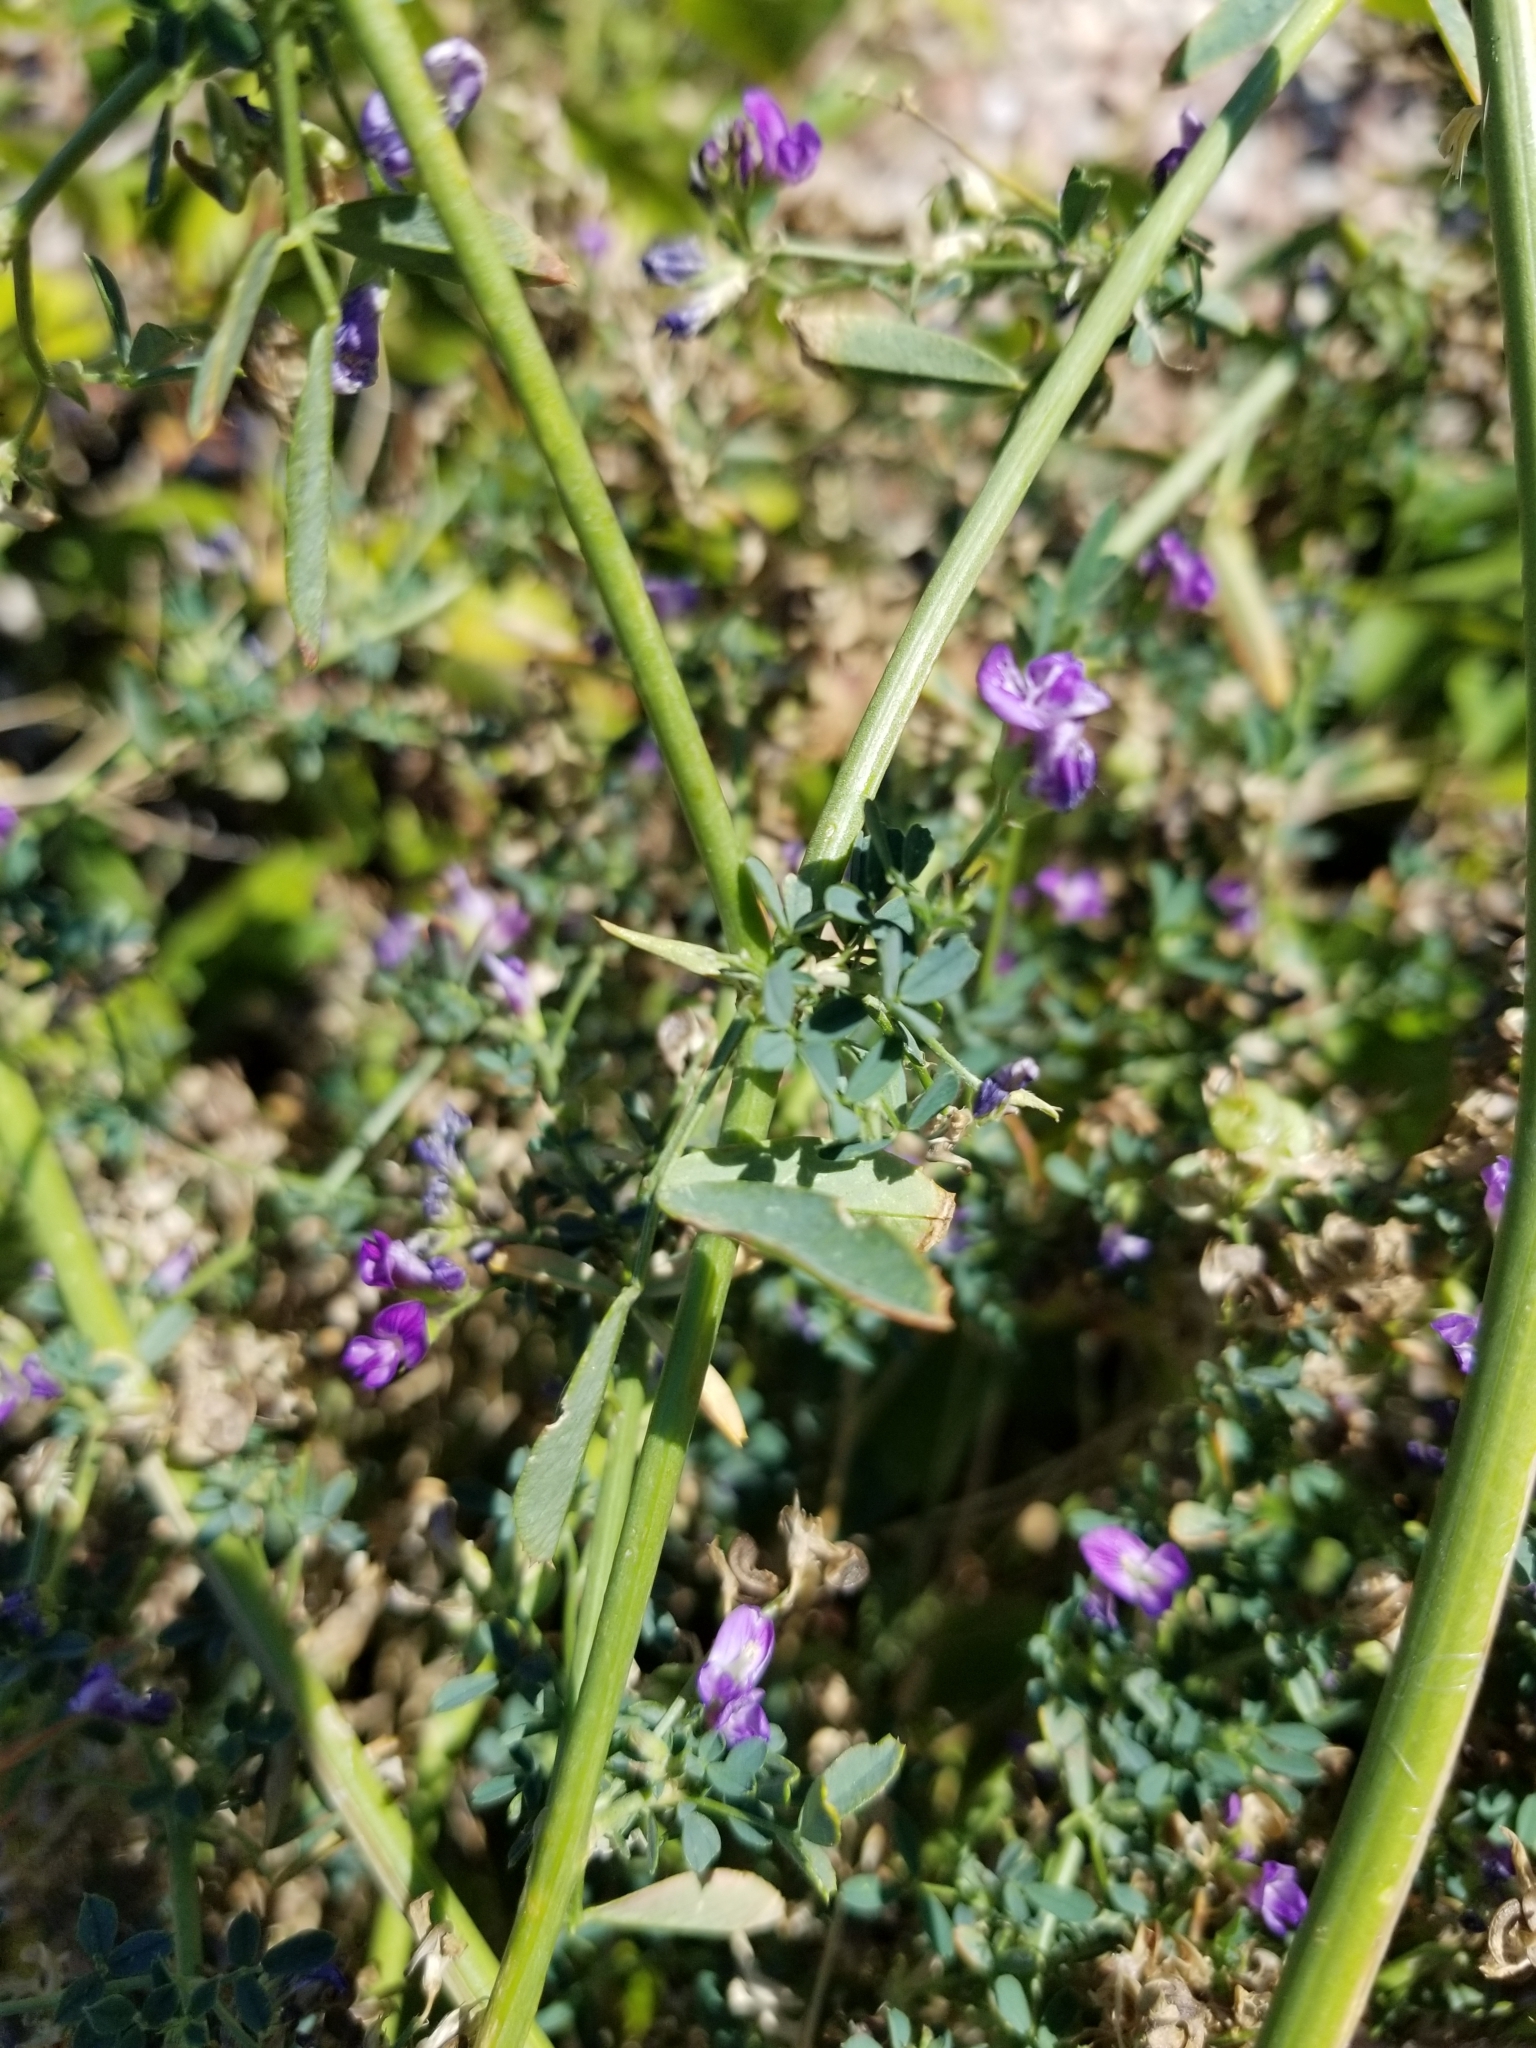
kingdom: Plantae
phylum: Tracheophyta
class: Magnoliopsida
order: Fabales
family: Fabaceae
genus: Medicago
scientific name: Medicago sativa
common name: Alfalfa
